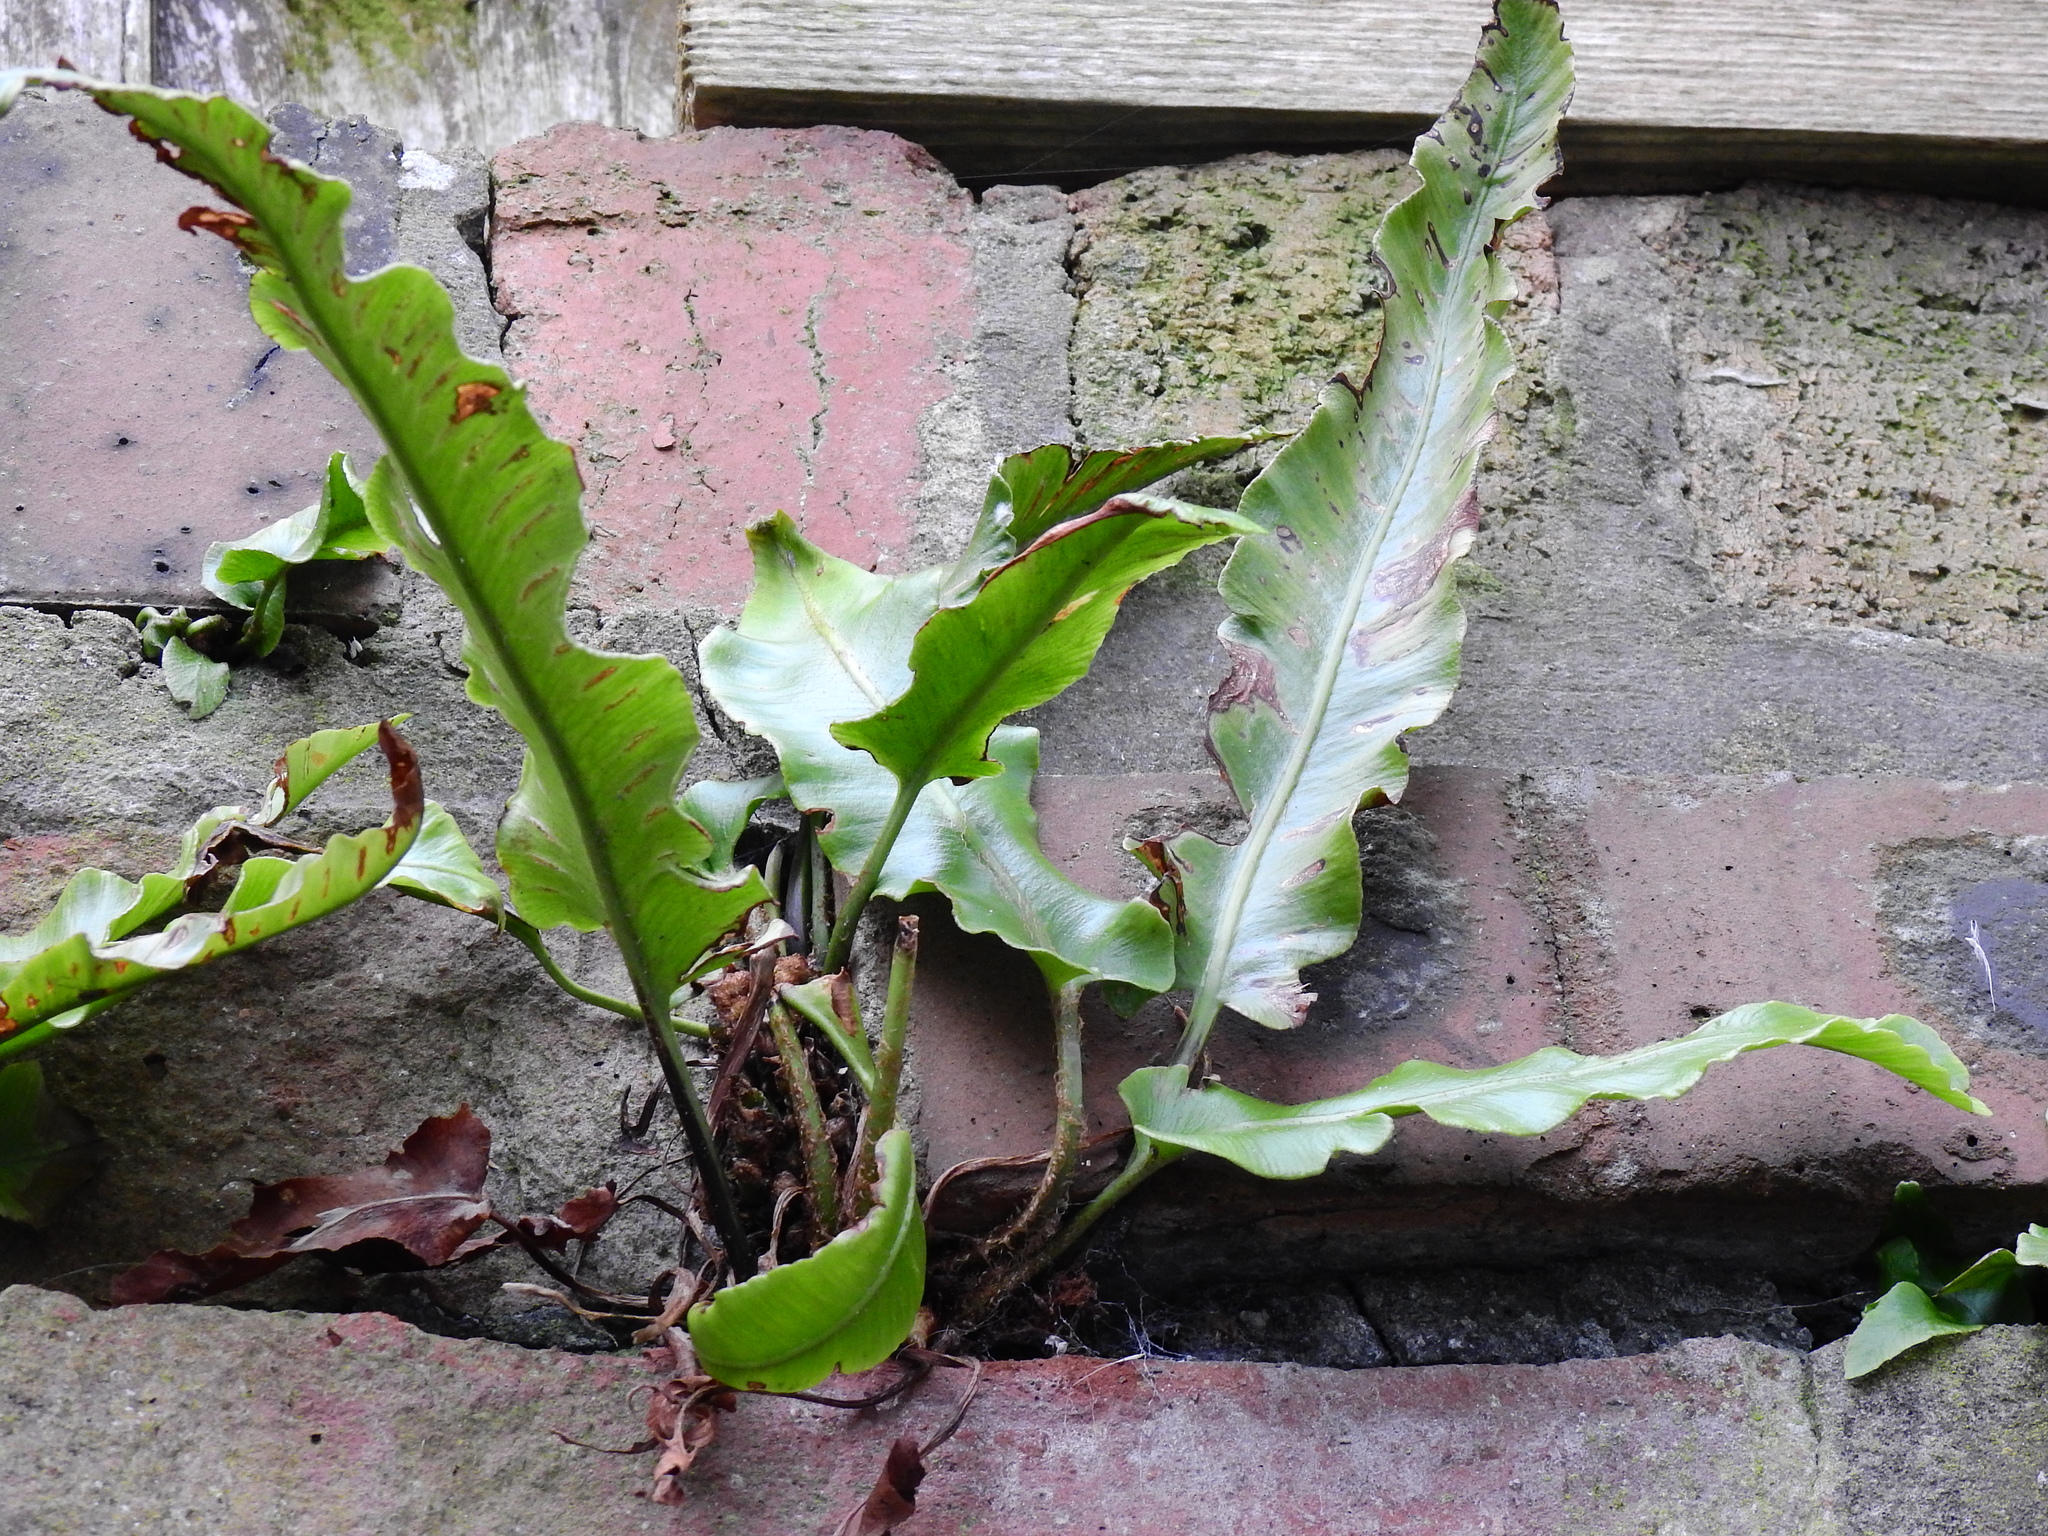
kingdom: Plantae
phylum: Tracheophyta
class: Polypodiopsida
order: Polypodiales
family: Aspleniaceae
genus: Asplenium
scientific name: Asplenium scolopendrium
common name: Hart's-tongue fern
